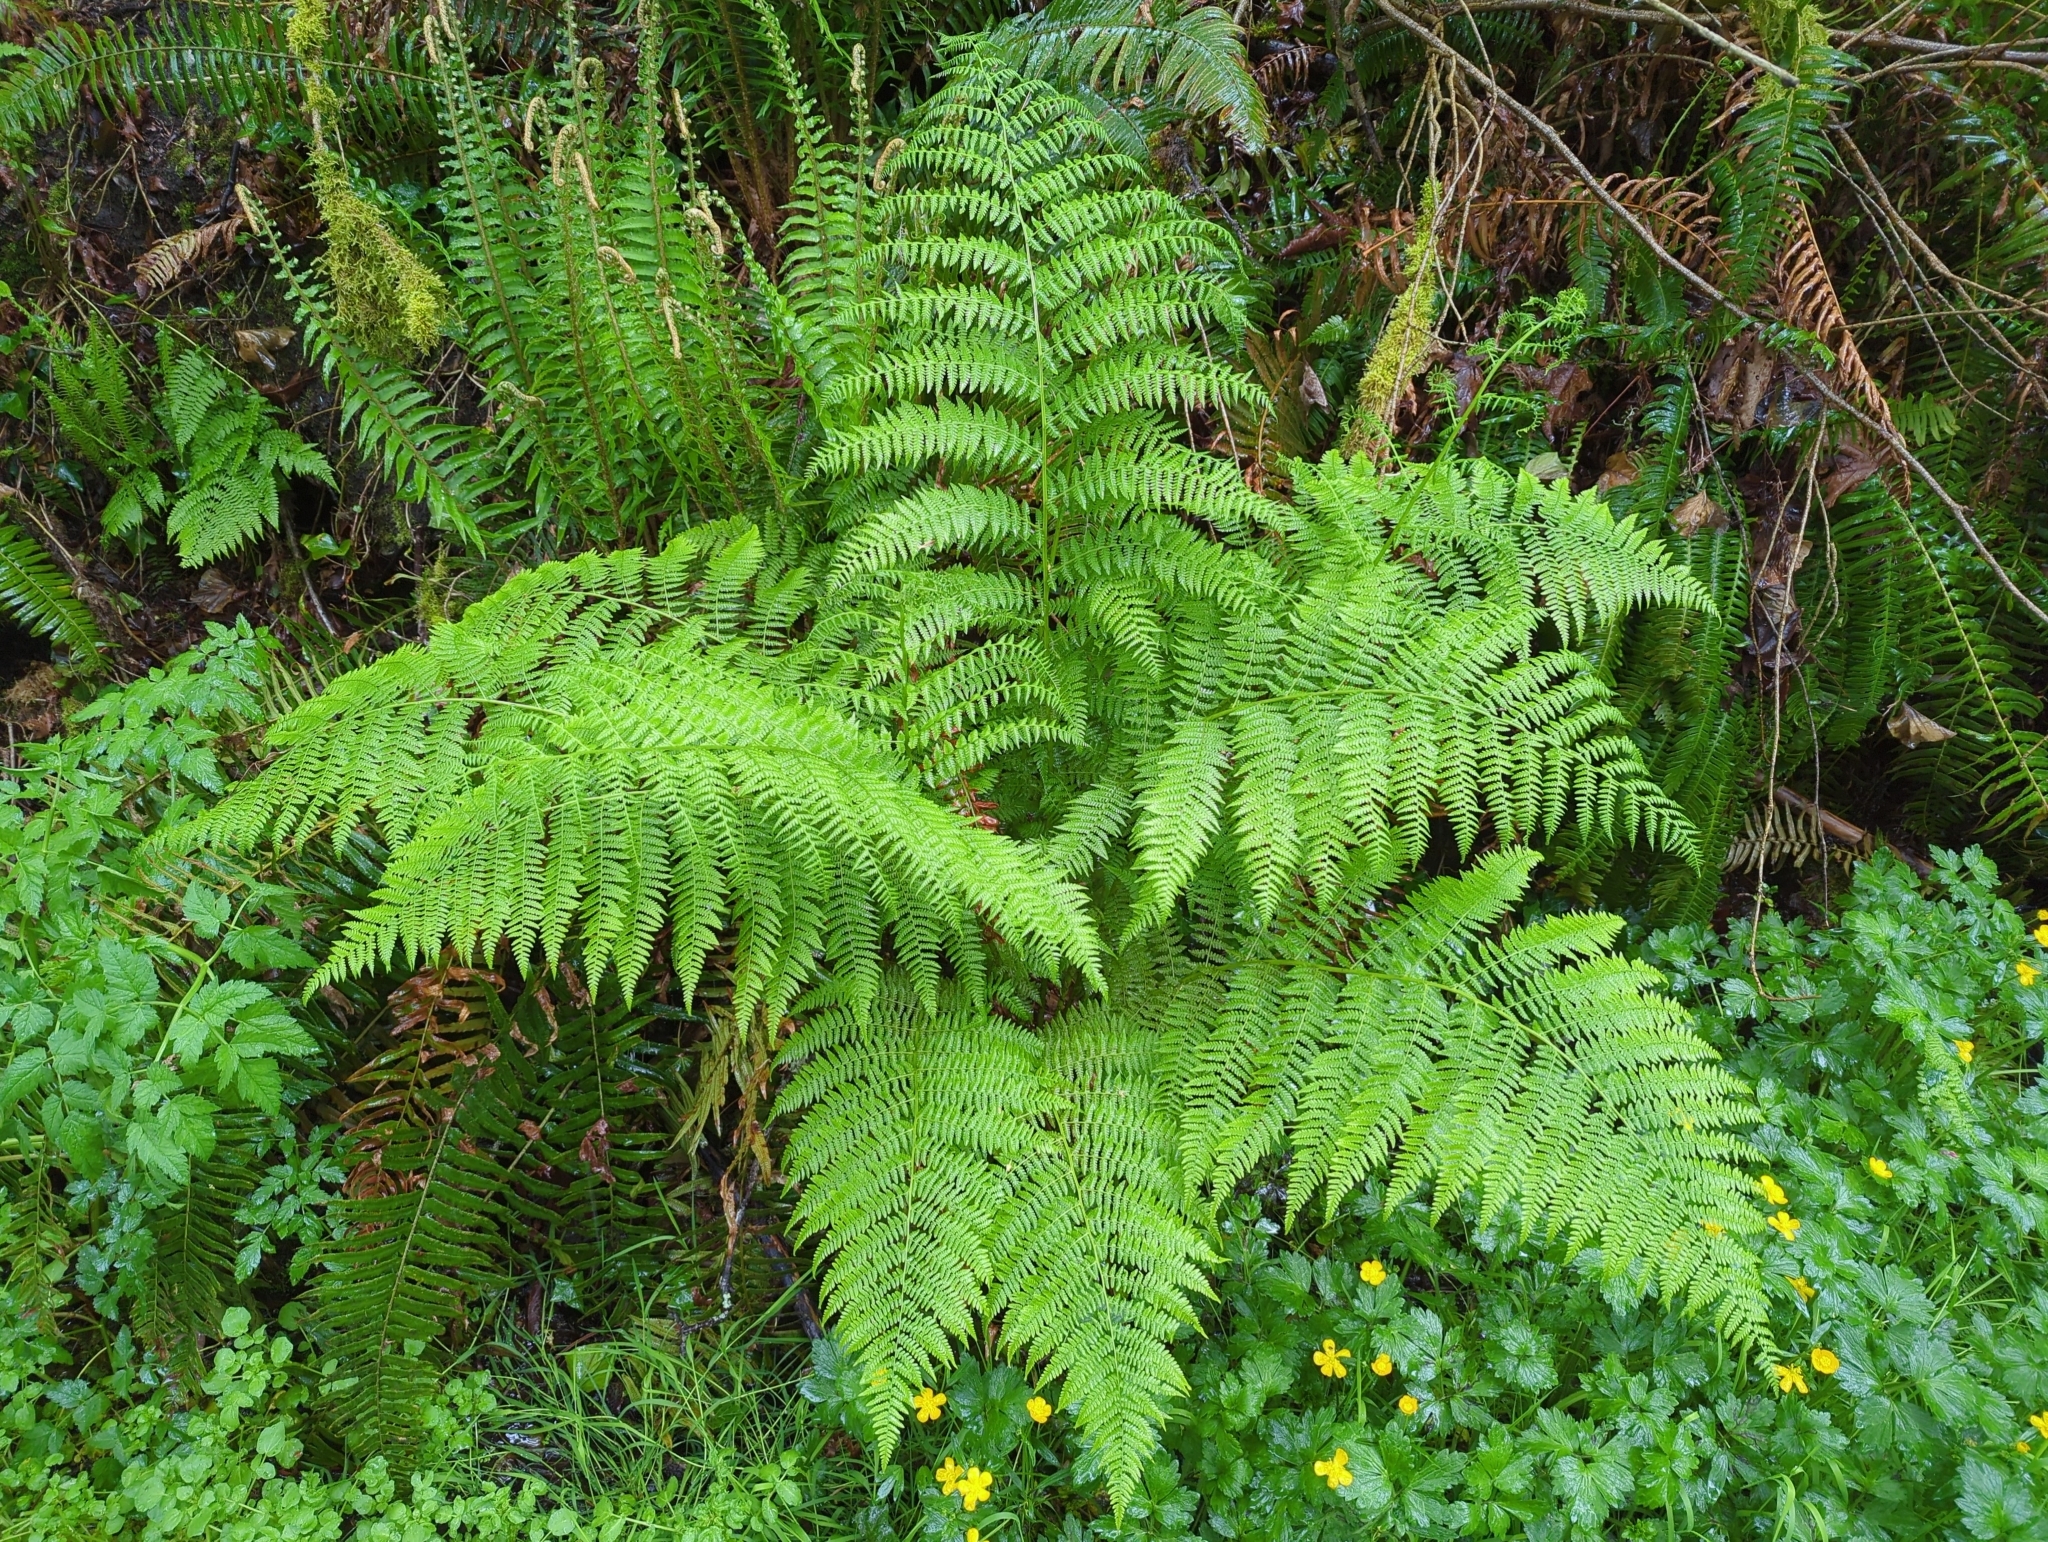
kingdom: Plantae
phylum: Tracheophyta
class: Polypodiopsida
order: Polypodiales
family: Athyriaceae
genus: Athyrium
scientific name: Athyrium cyclosorum
